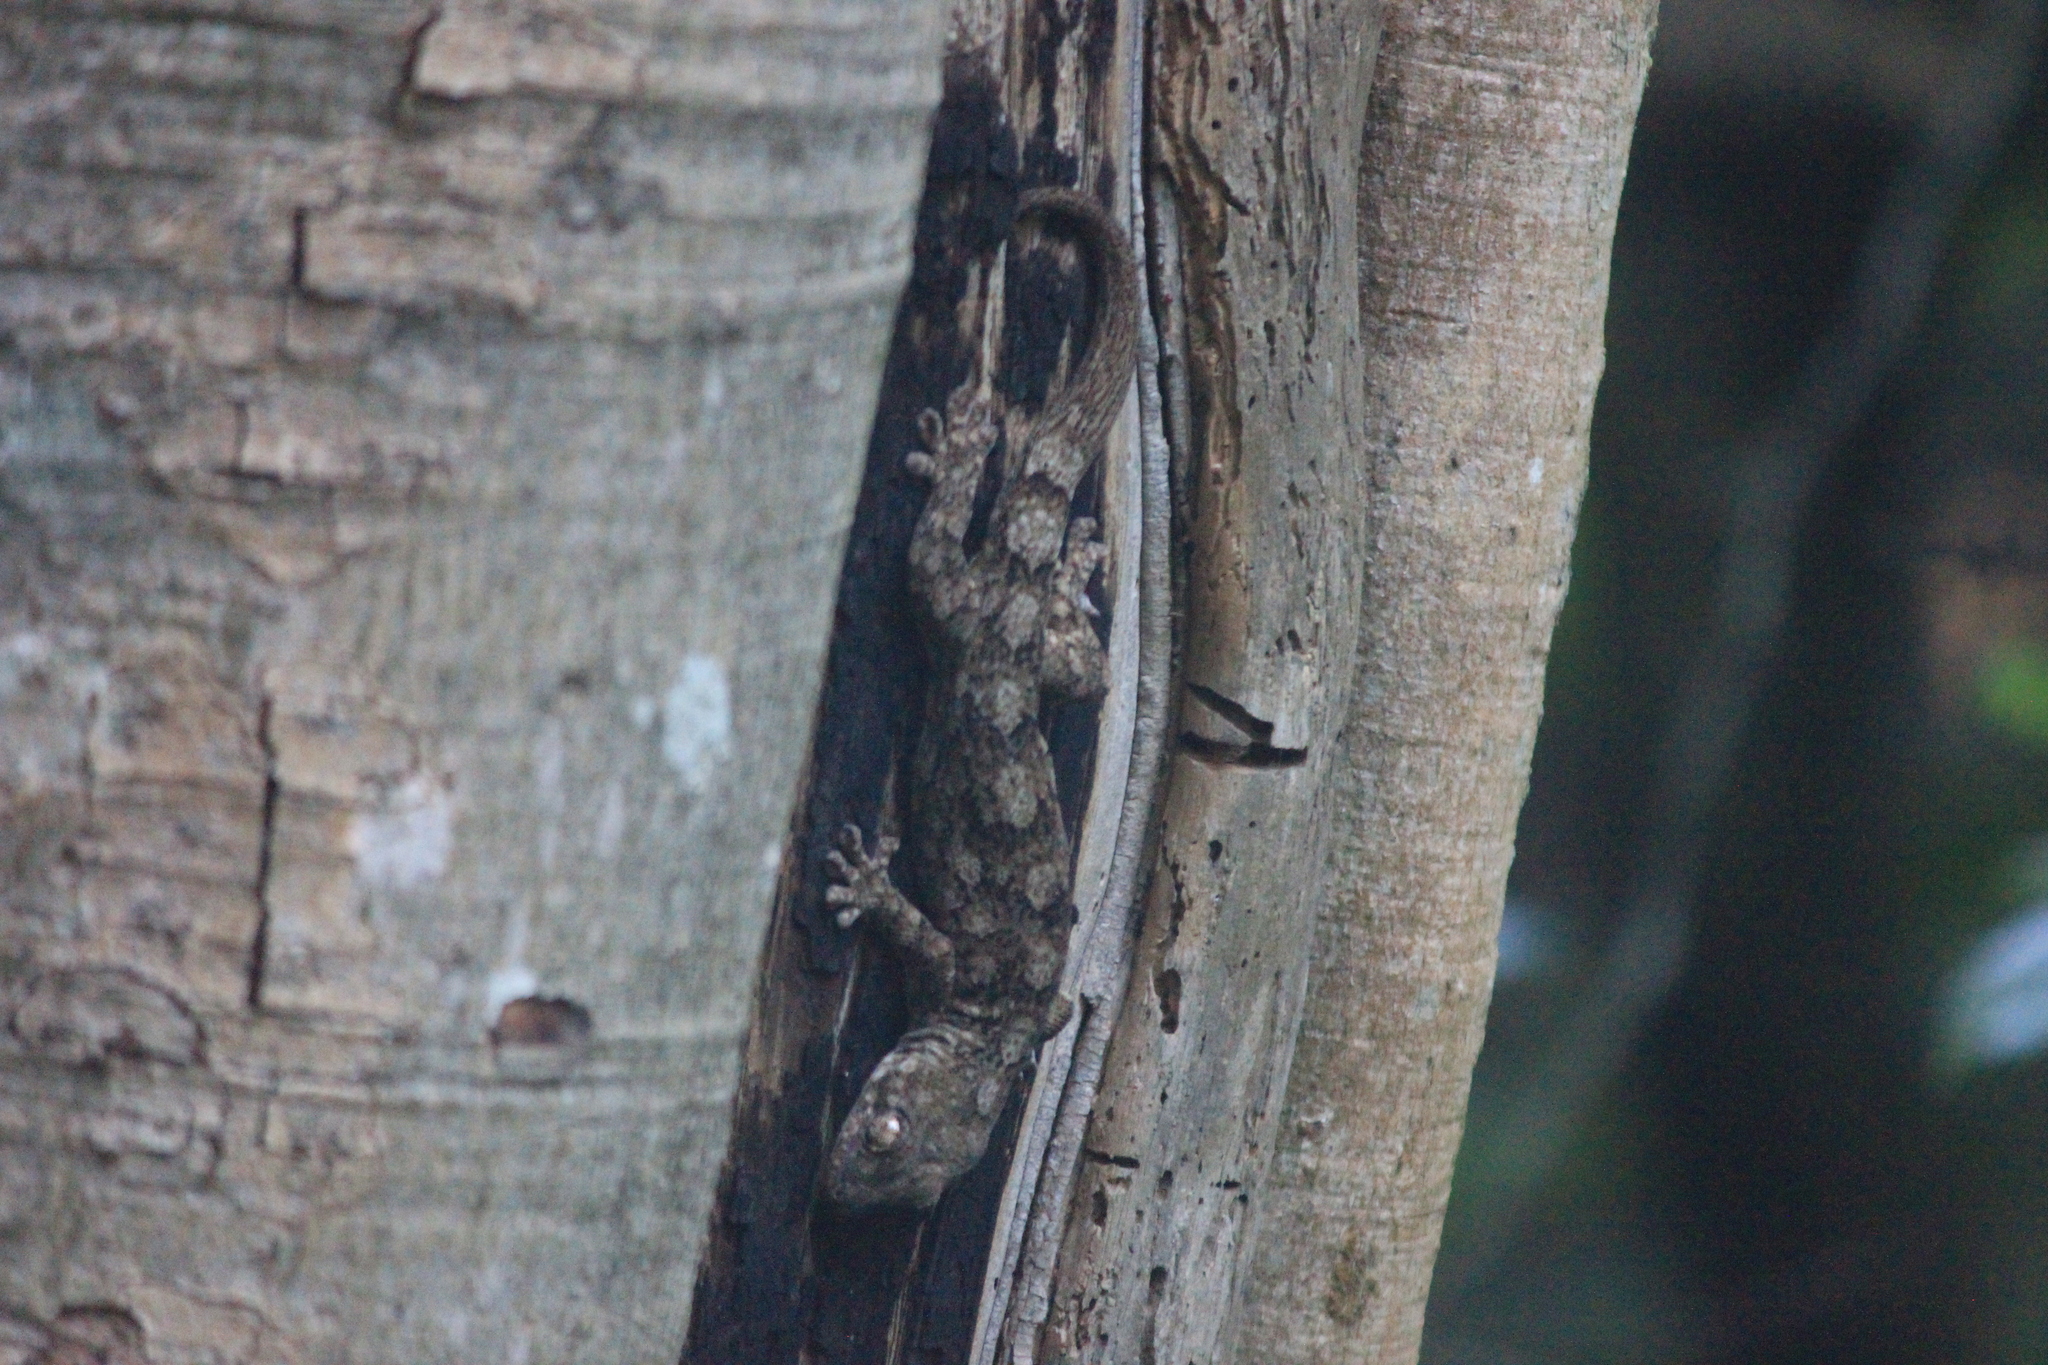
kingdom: Animalia
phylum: Chordata
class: Squamata
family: Gekkonidae
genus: Homopholis
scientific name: Homopholis walbergii
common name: Wahlberg’s velvet gecko
